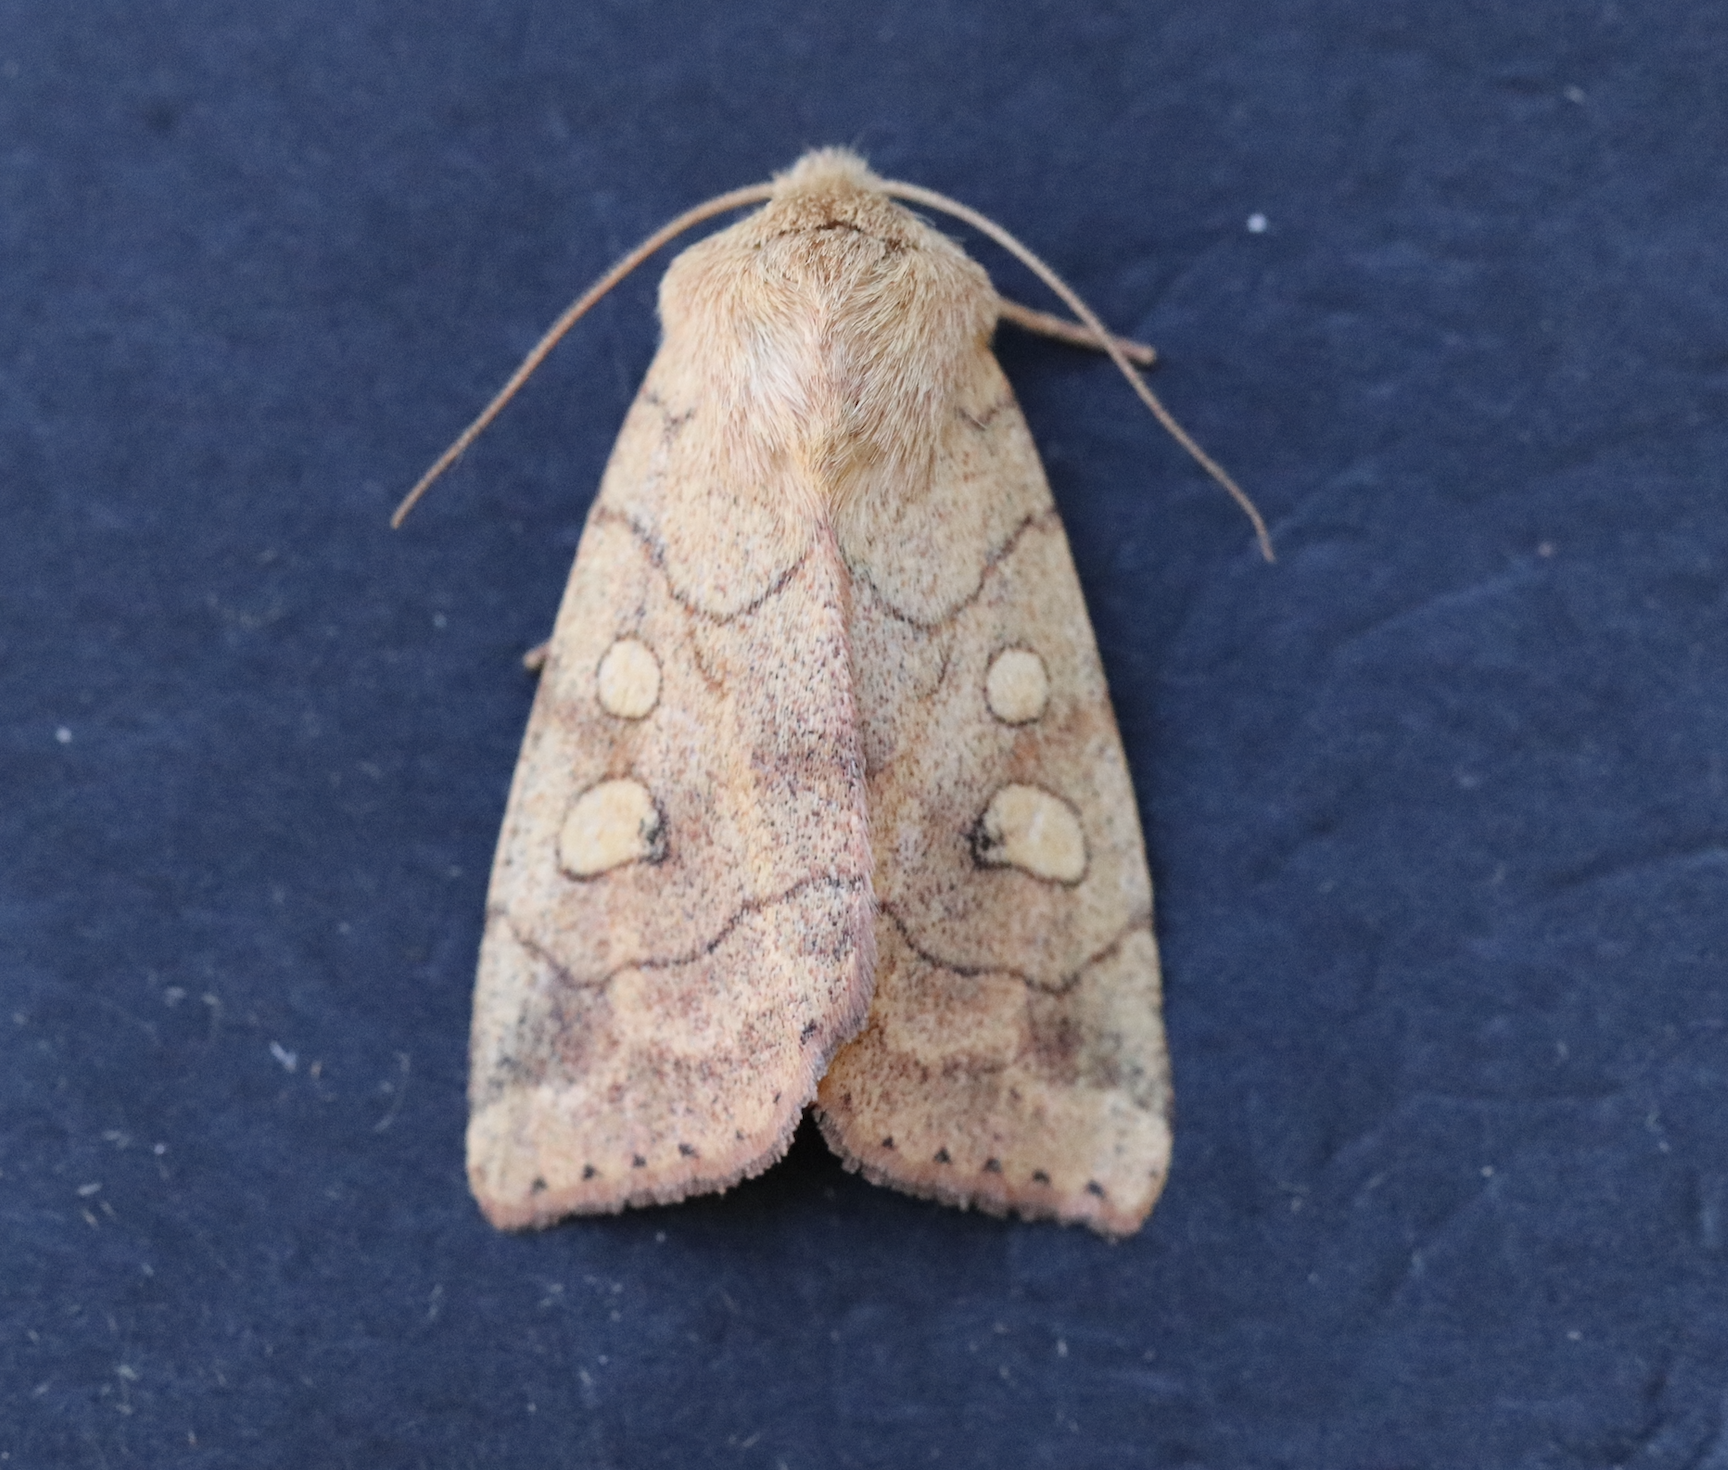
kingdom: Animalia
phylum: Arthropoda
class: Insecta
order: Lepidoptera
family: Noctuidae
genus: Enargia
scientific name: Enargia infumata
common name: Smoked sallow
